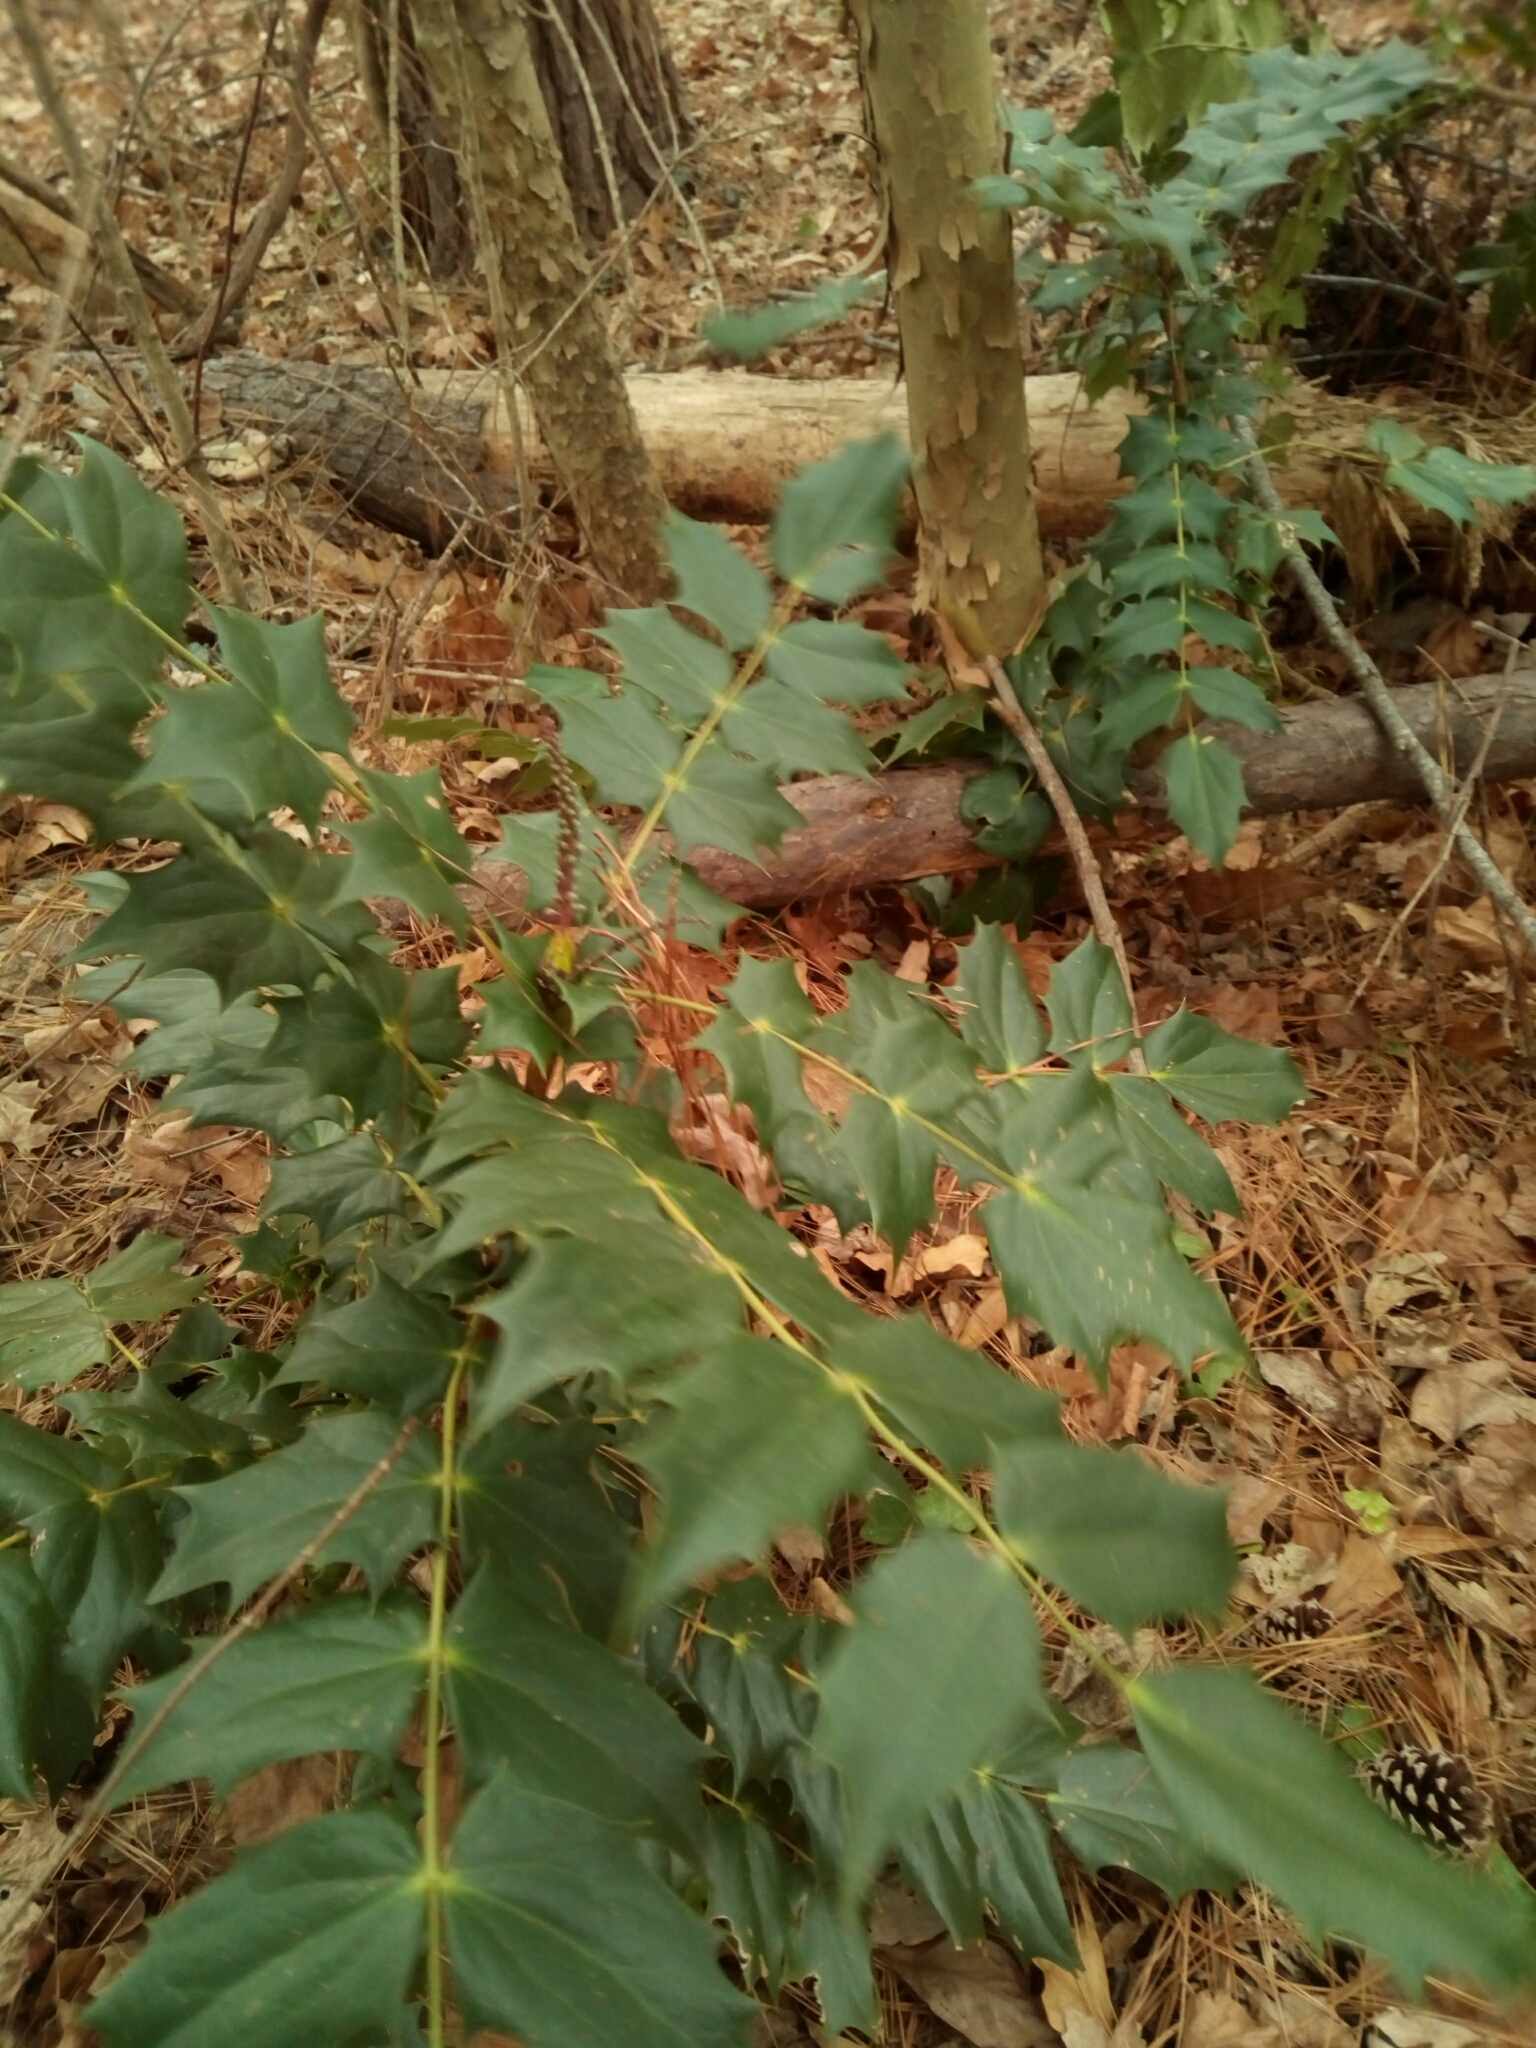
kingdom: Plantae
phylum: Tracheophyta
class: Magnoliopsida
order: Ranunculales
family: Berberidaceae
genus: Mahonia
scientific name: Mahonia bealei
